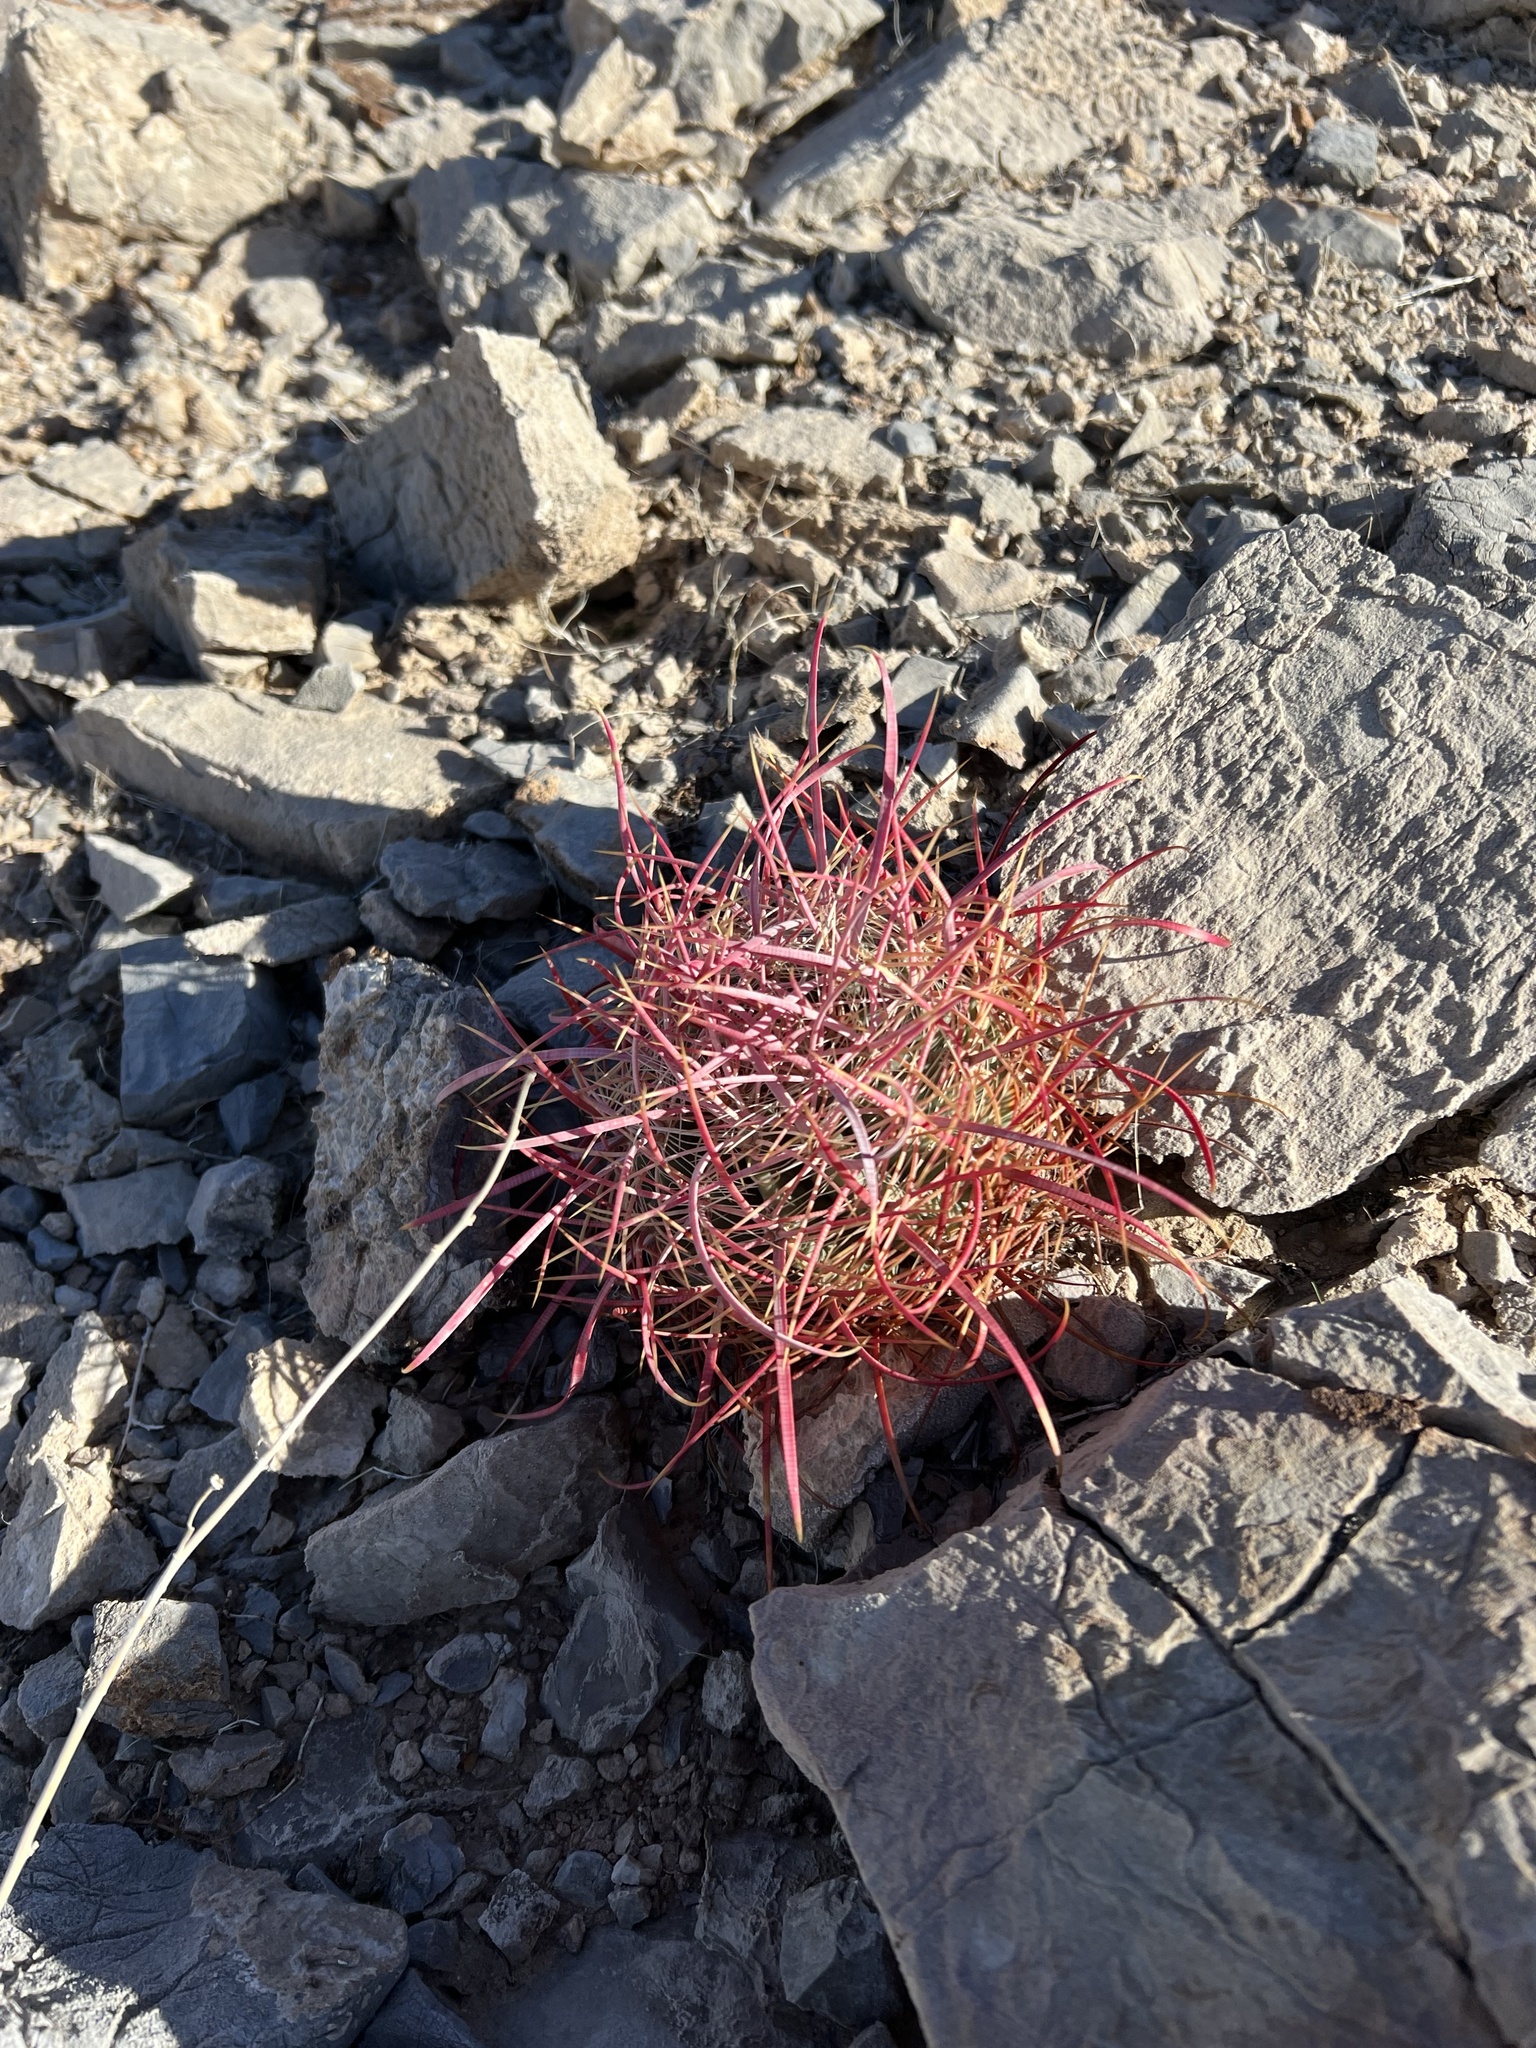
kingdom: Plantae
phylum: Tracheophyta
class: Magnoliopsida
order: Caryophyllales
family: Cactaceae
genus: Ferocactus
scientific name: Ferocactus cylindraceus
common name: California barrel cactus
